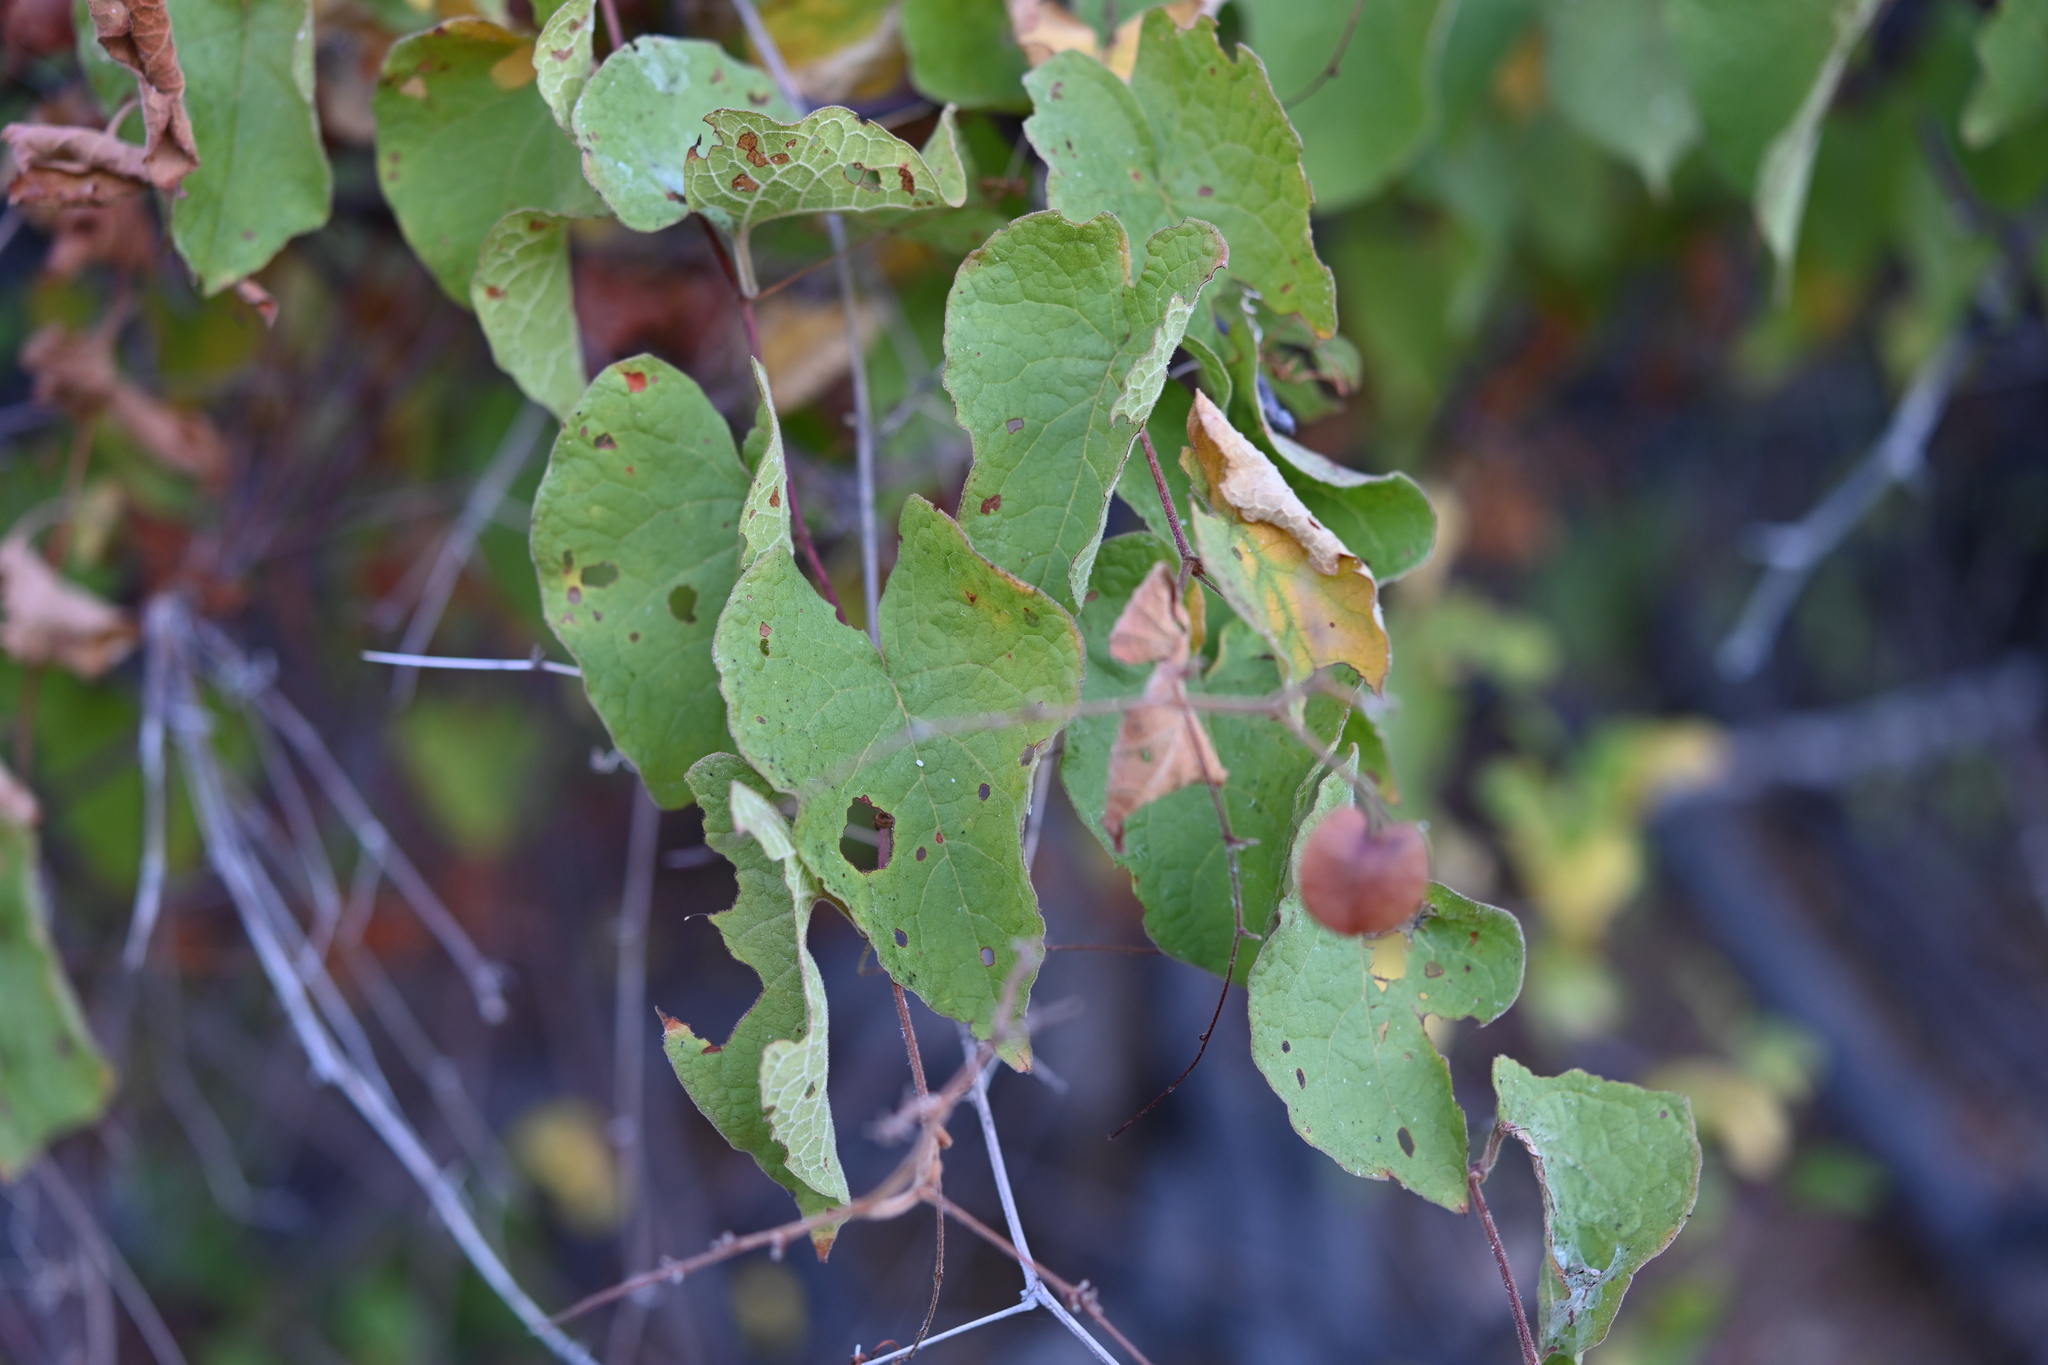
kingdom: Plantae
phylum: Tracheophyta
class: Magnoliopsida
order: Caryophyllales
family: Polygonaceae
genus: Antigonon
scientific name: Antigonon leptopus
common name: Coral vine
